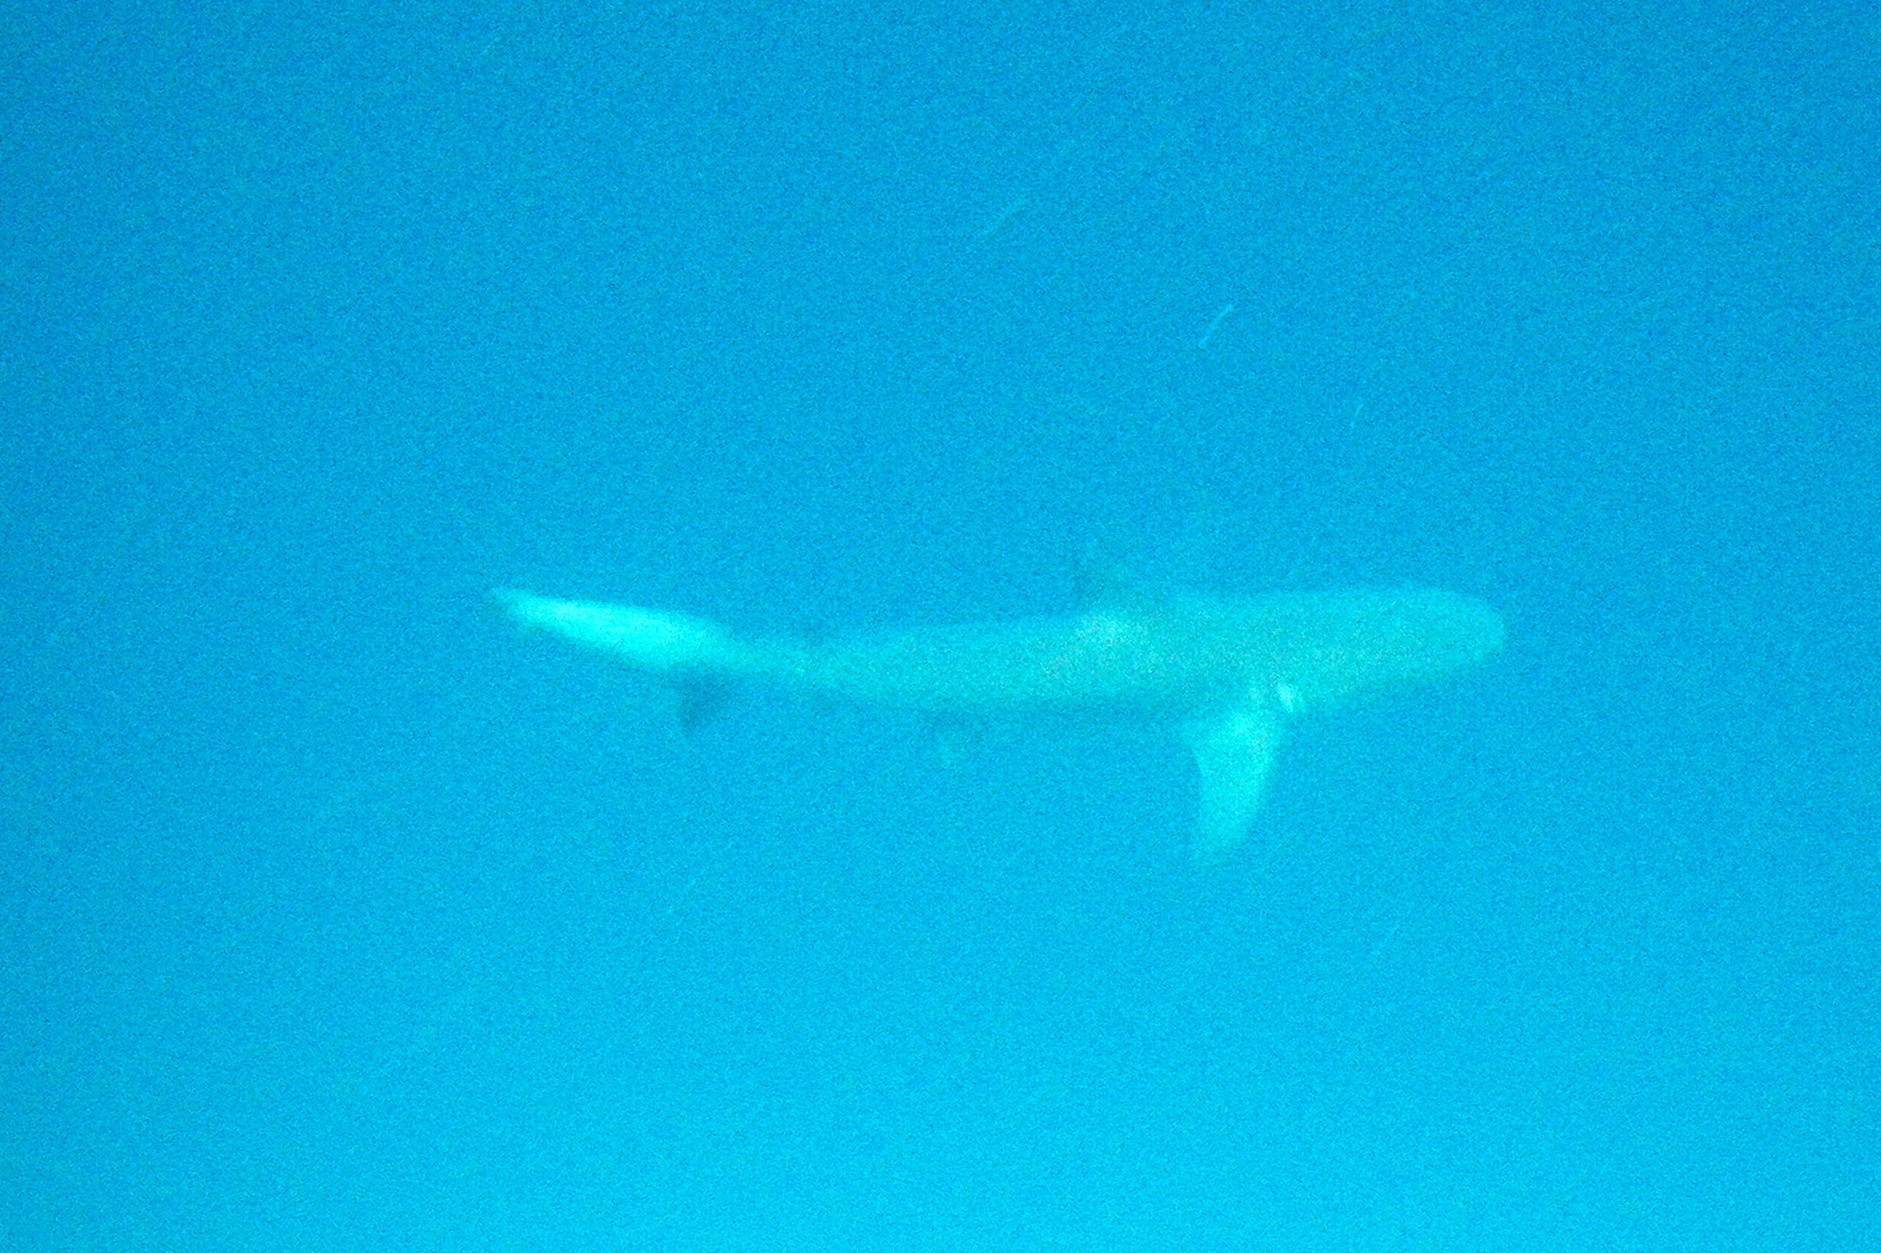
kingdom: Animalia
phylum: Chordata
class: Elasmobranchii
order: Carcharhiniformes
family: Carcharhinidae
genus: Carcharhinus
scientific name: Carcharhinus galapagensis
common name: Galapagos shark
